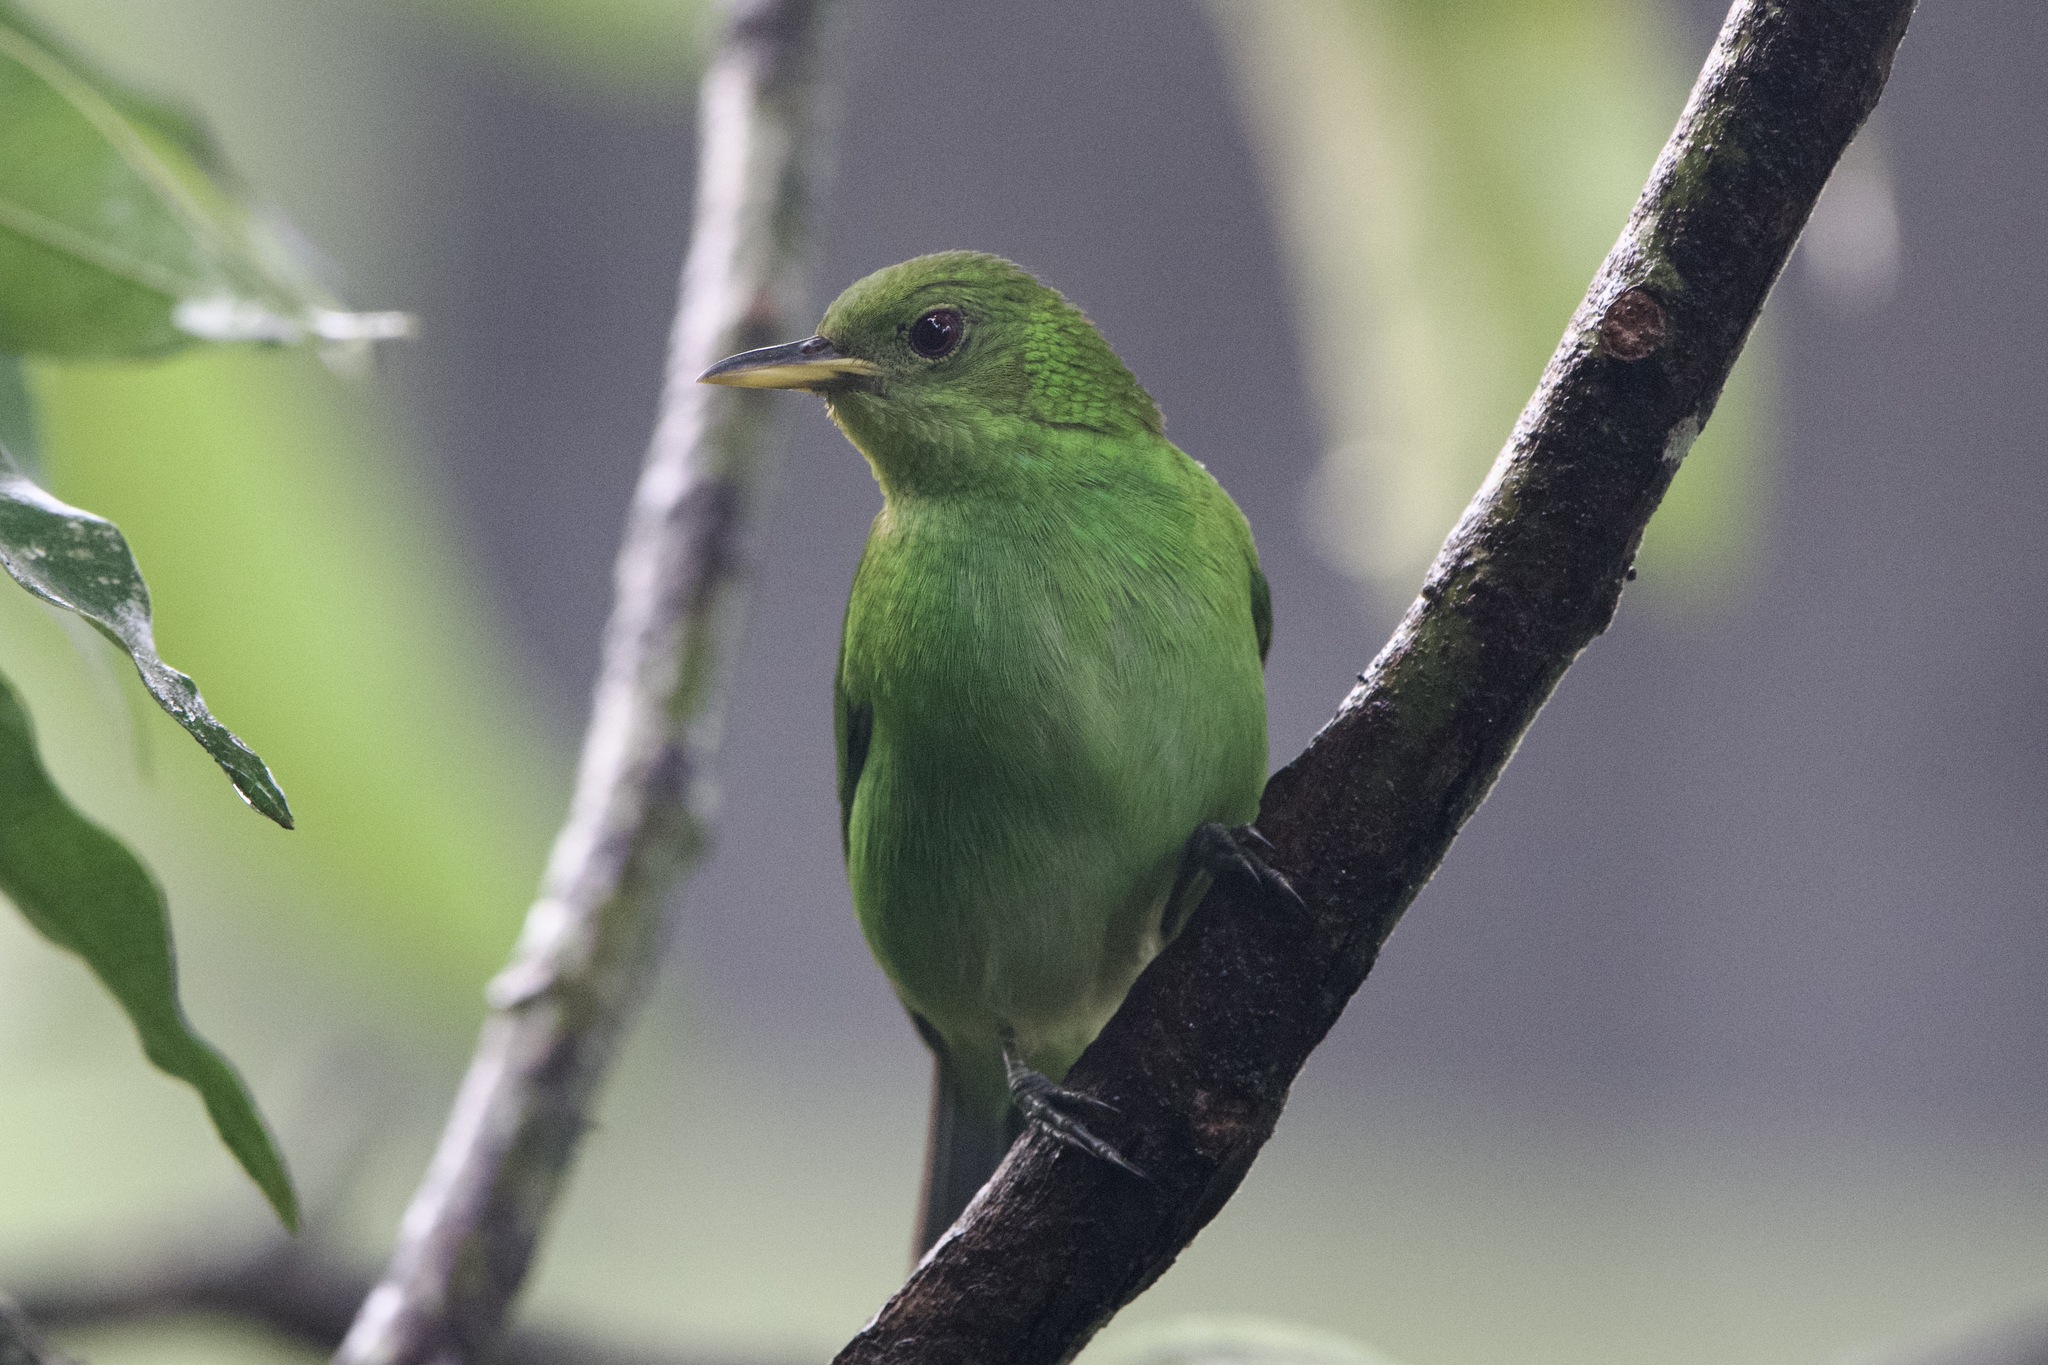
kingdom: Animalia
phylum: Chordata
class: Aves
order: Passeriformes
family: Thraupidae
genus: Chlorophanes
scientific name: Chlorophanes spiza
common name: Green honeycreeper
